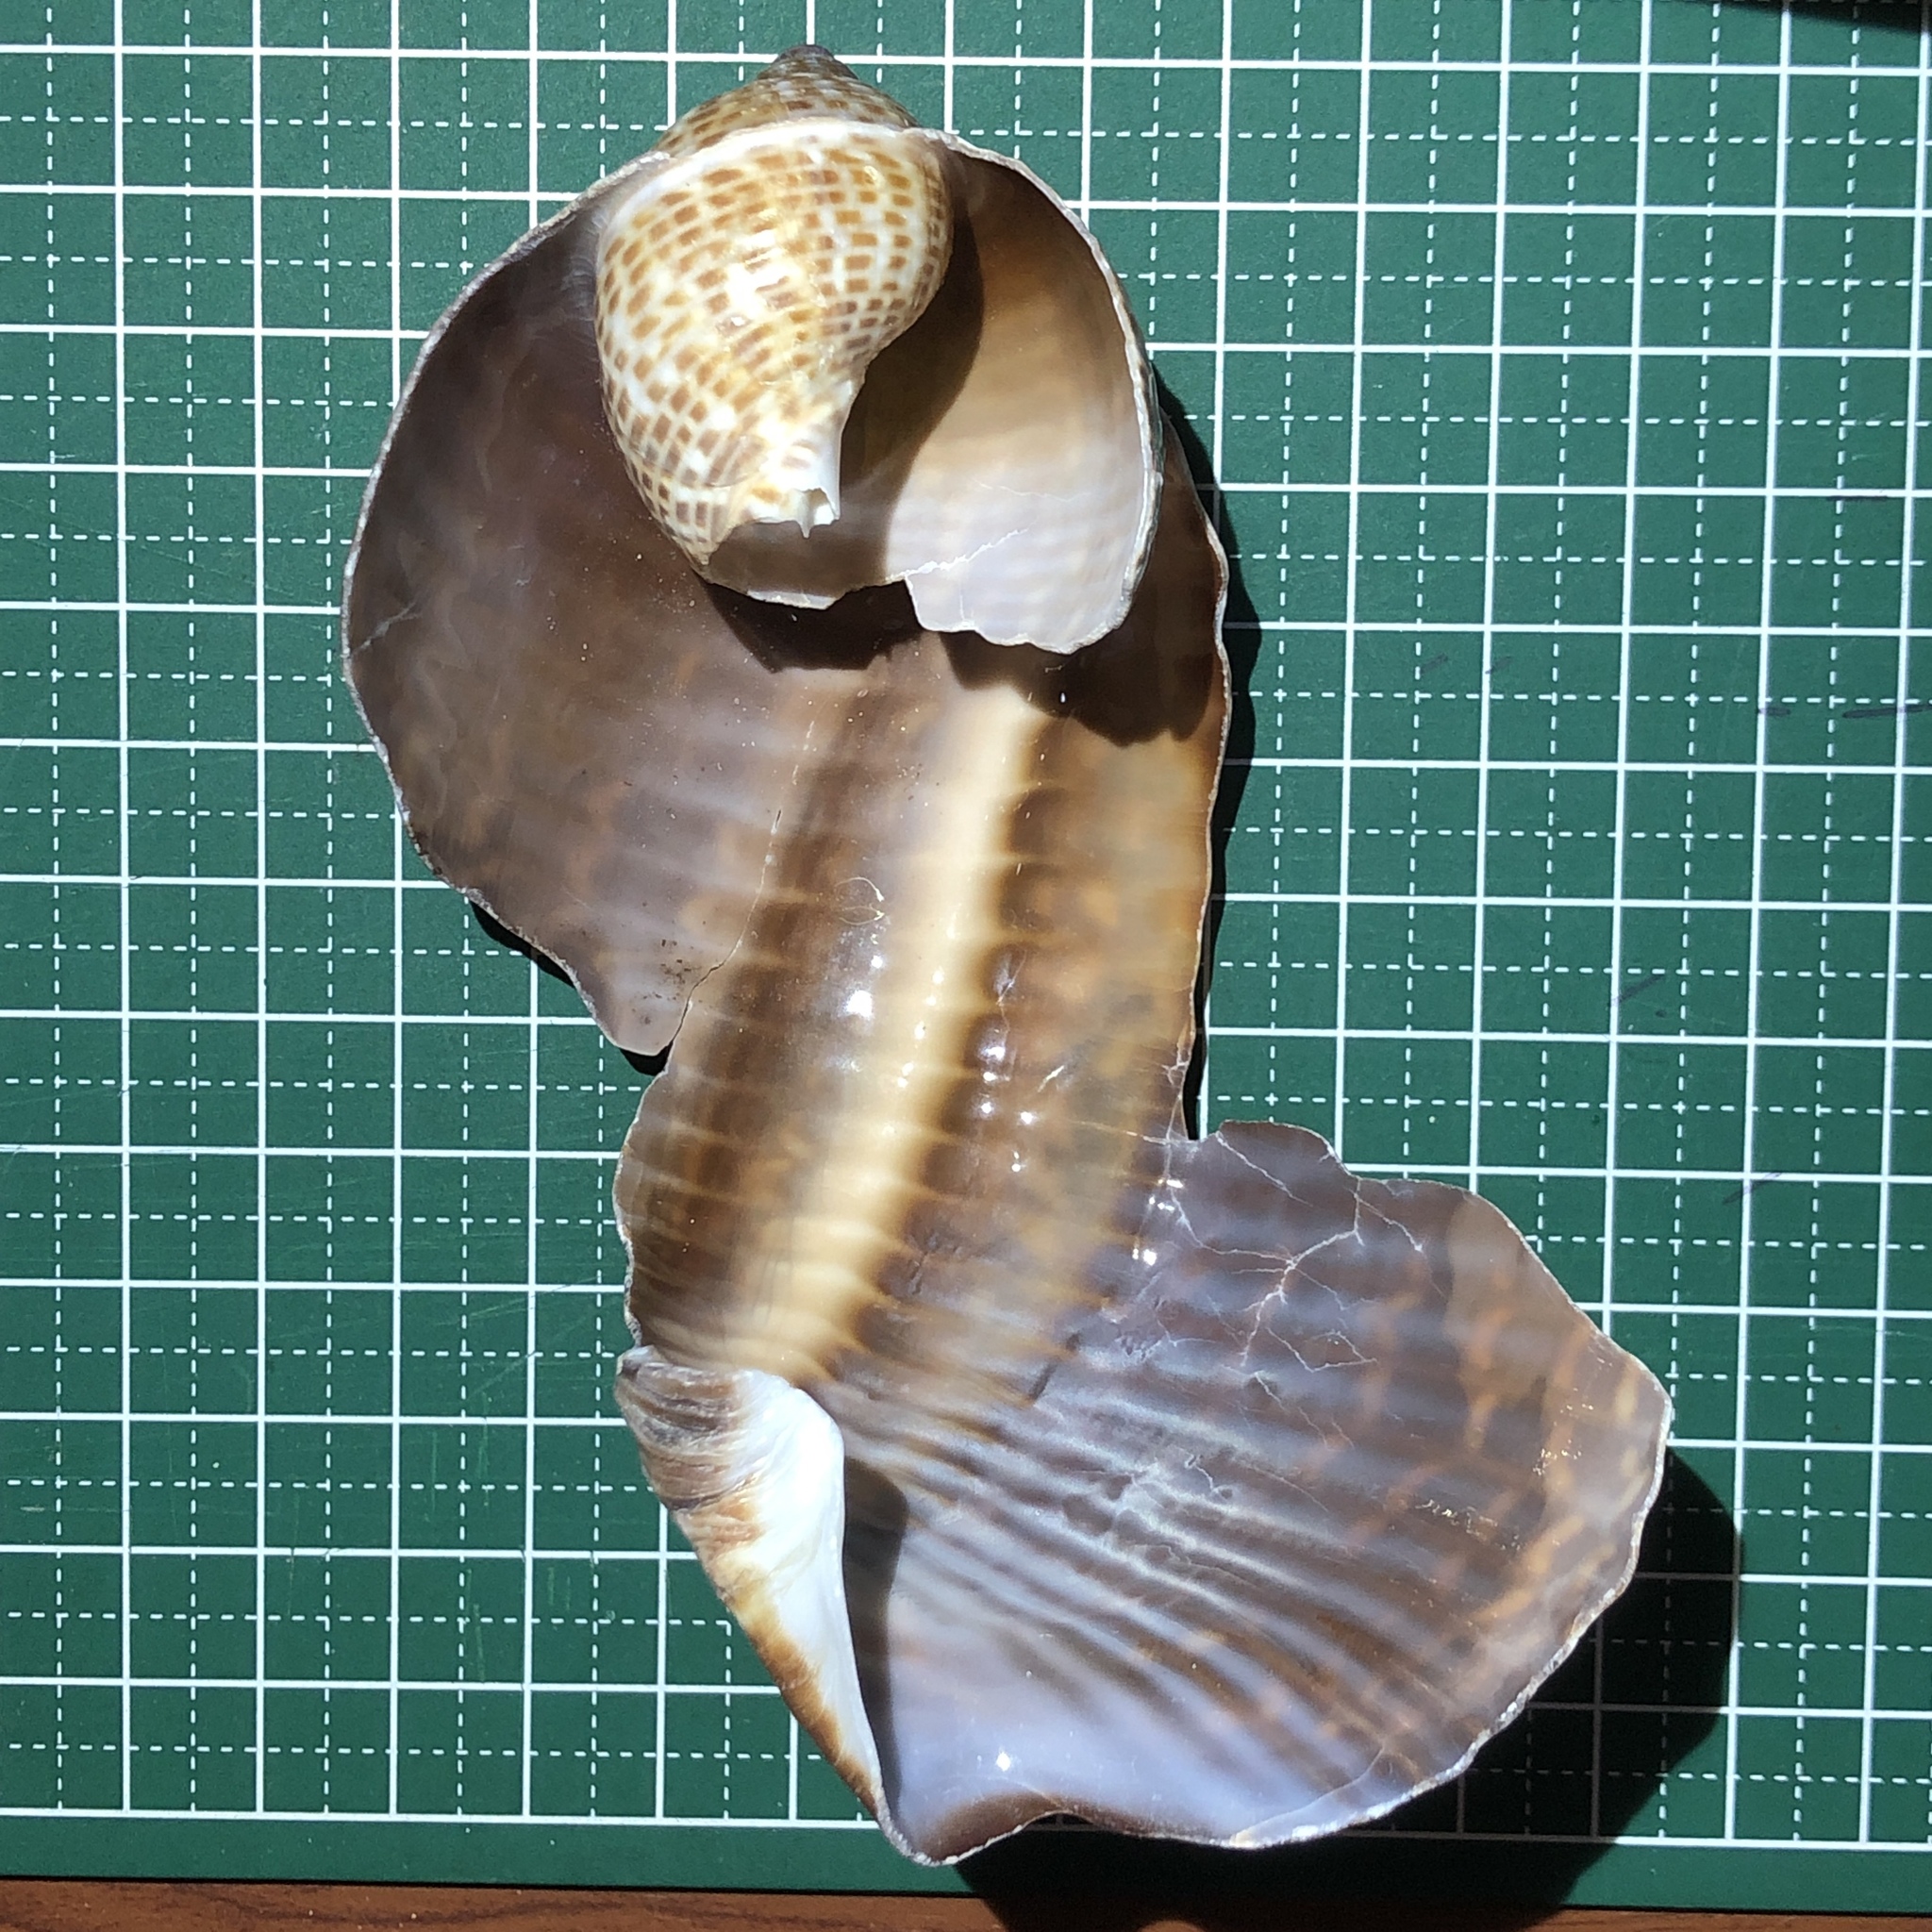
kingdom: Animalia
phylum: Mollusca
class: Gastropoda
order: Littorinimorpha
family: Tonnidae
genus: Tonna
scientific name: Tonna perdix
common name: Pacific partridge tun
